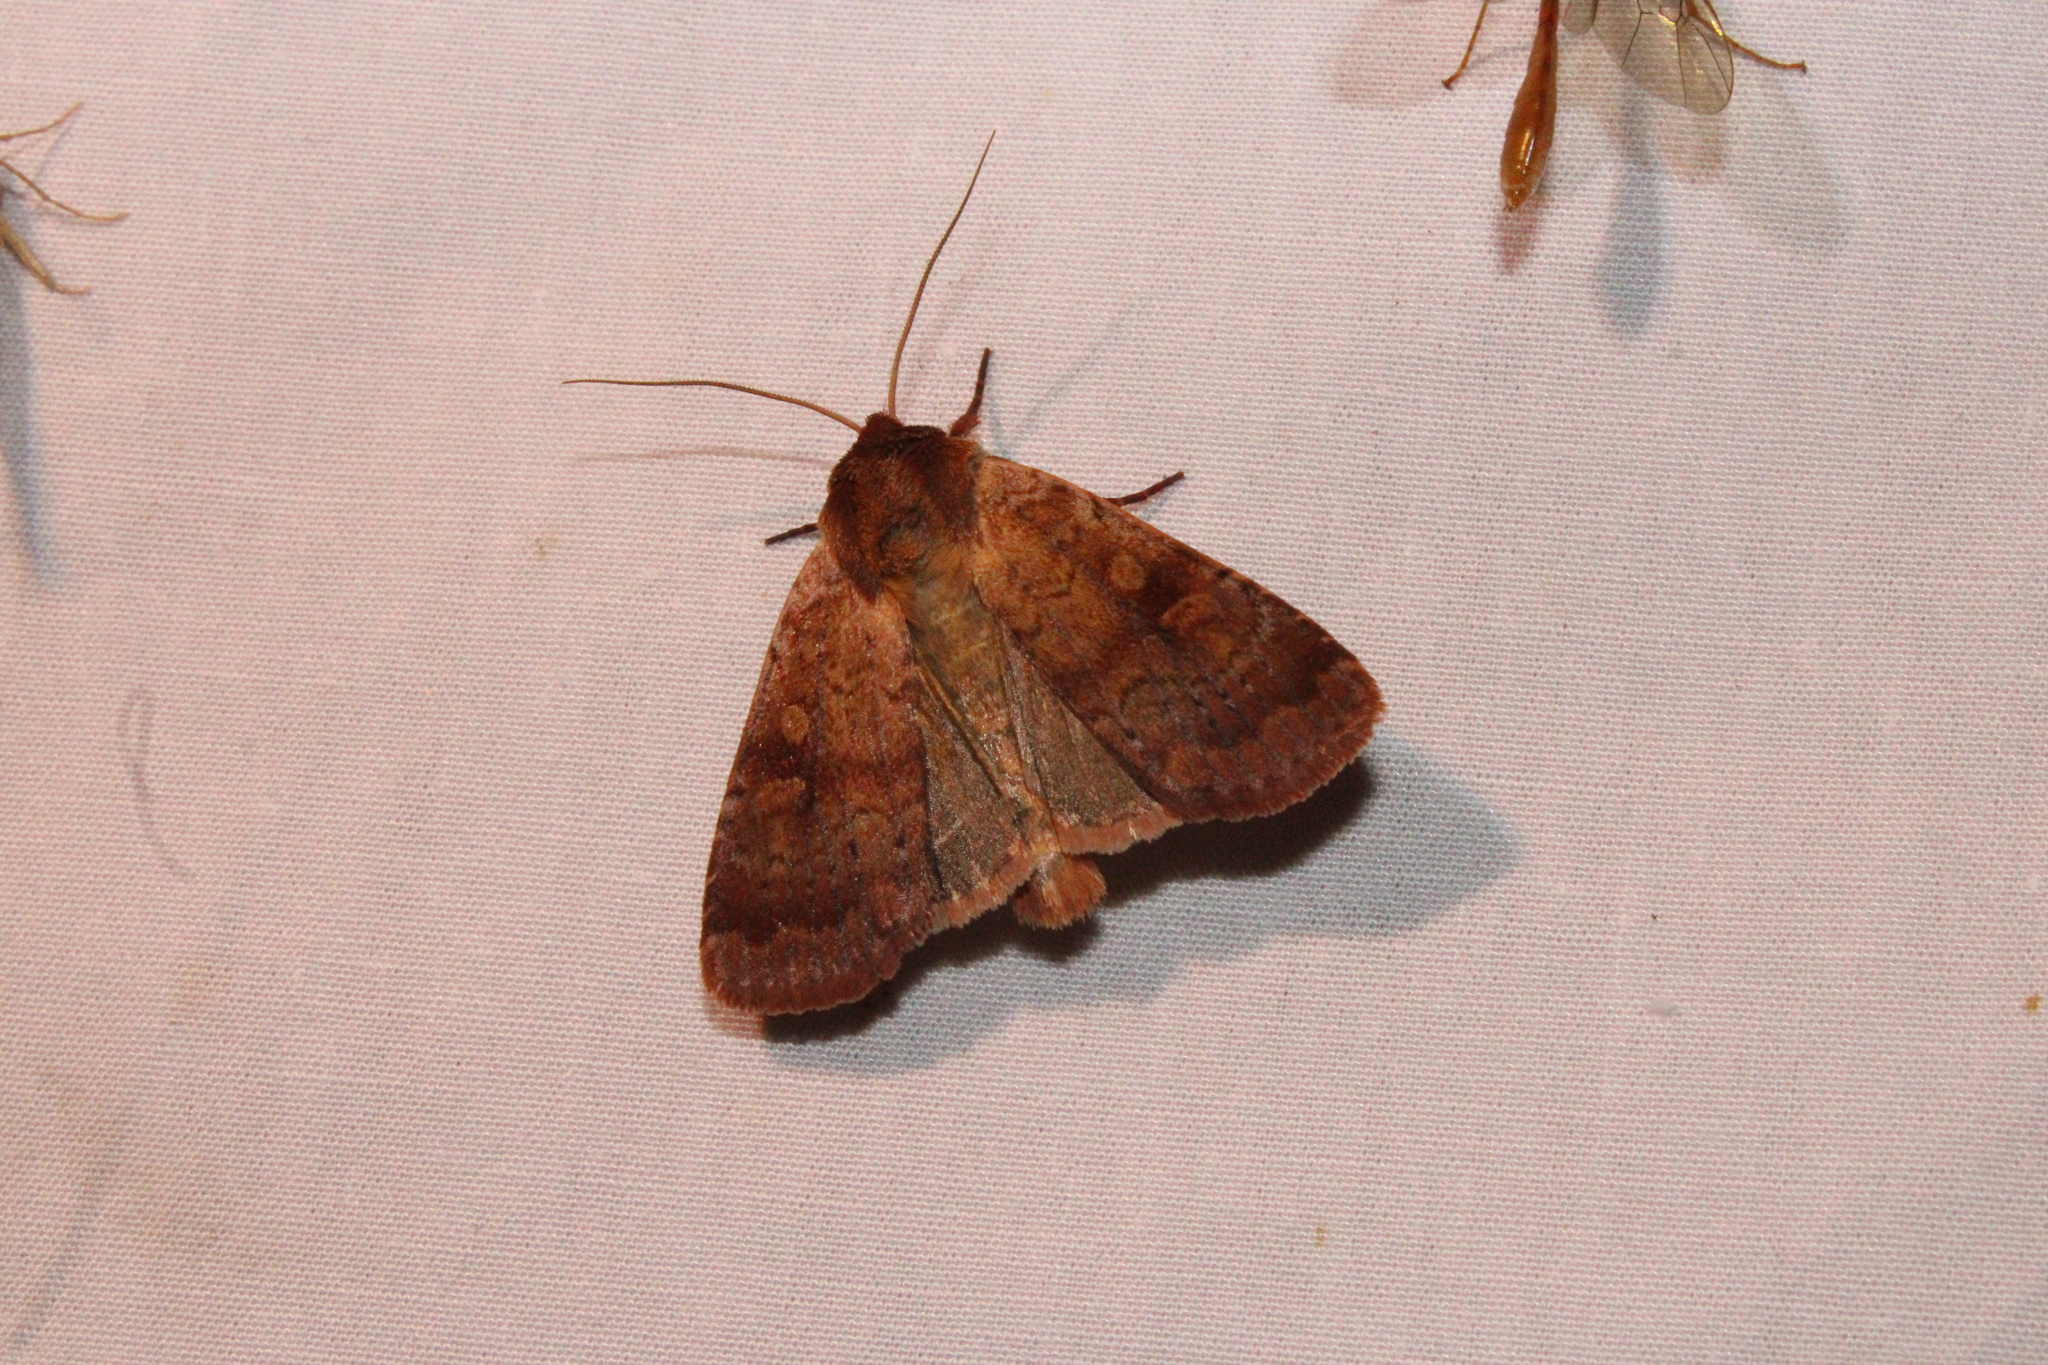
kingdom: Animalia
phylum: Arthropoda
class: Insecta
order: Lepidoptera
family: Noctuidae
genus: Lycophotia
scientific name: Lycophotia phyllophora
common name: Lycophotia moth
